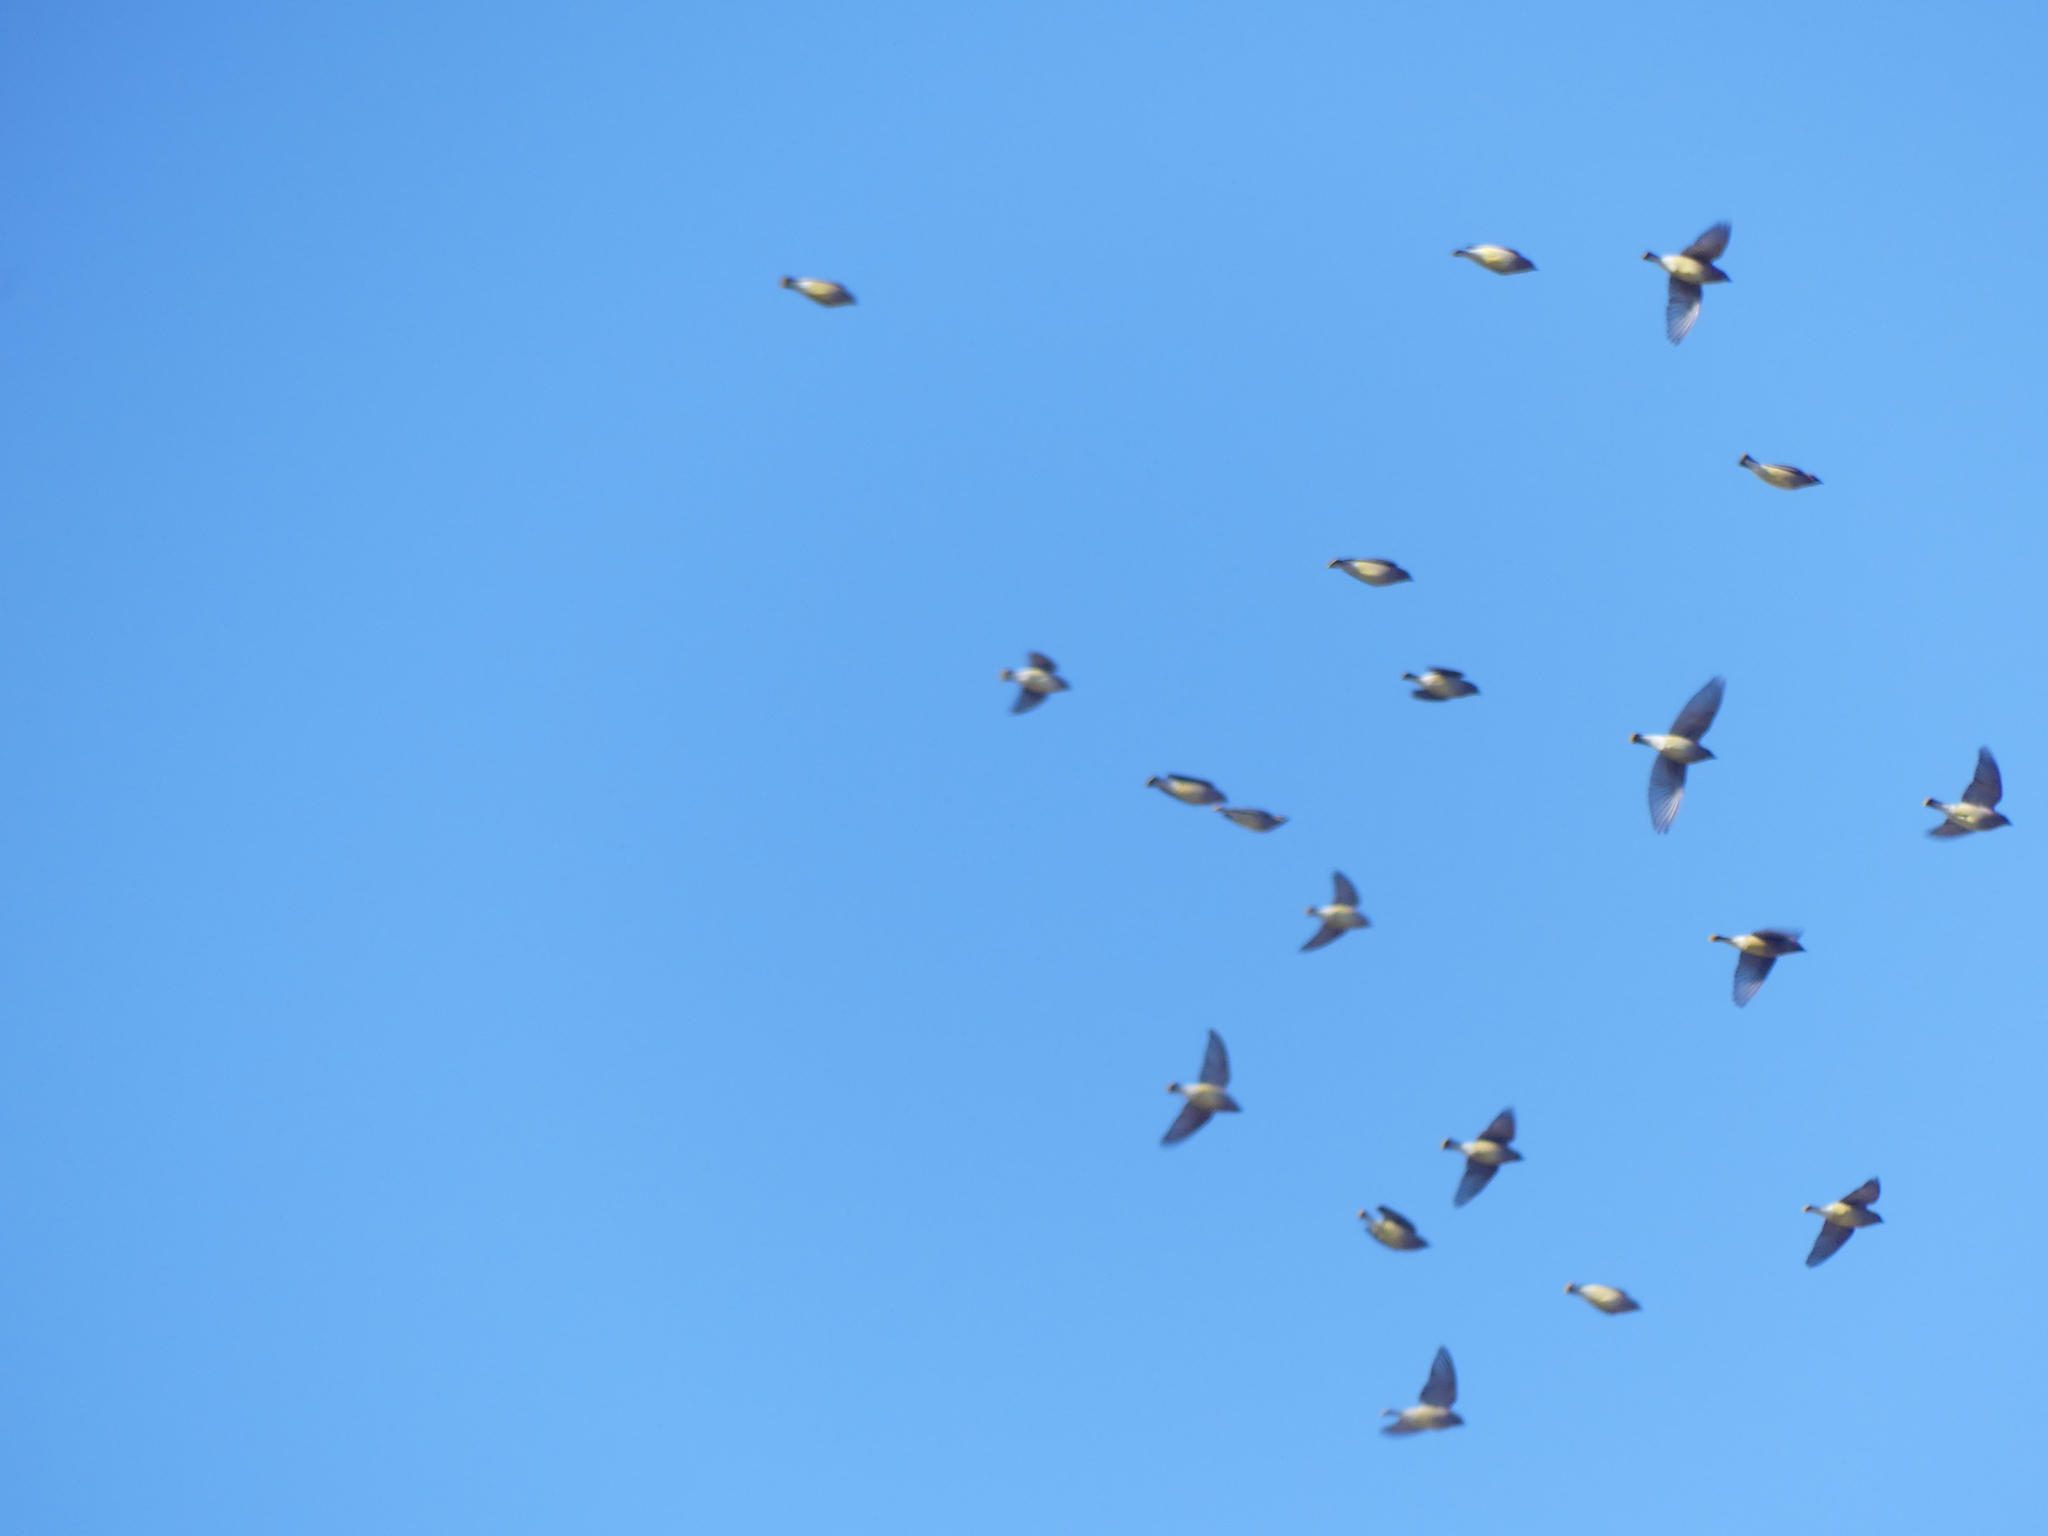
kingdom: Animalia
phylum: Chordata
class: Aves
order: Passeriformes
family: Bombycillidae
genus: Bombycilla
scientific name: Bombycilla cedrorum
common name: Cedar waxwing
